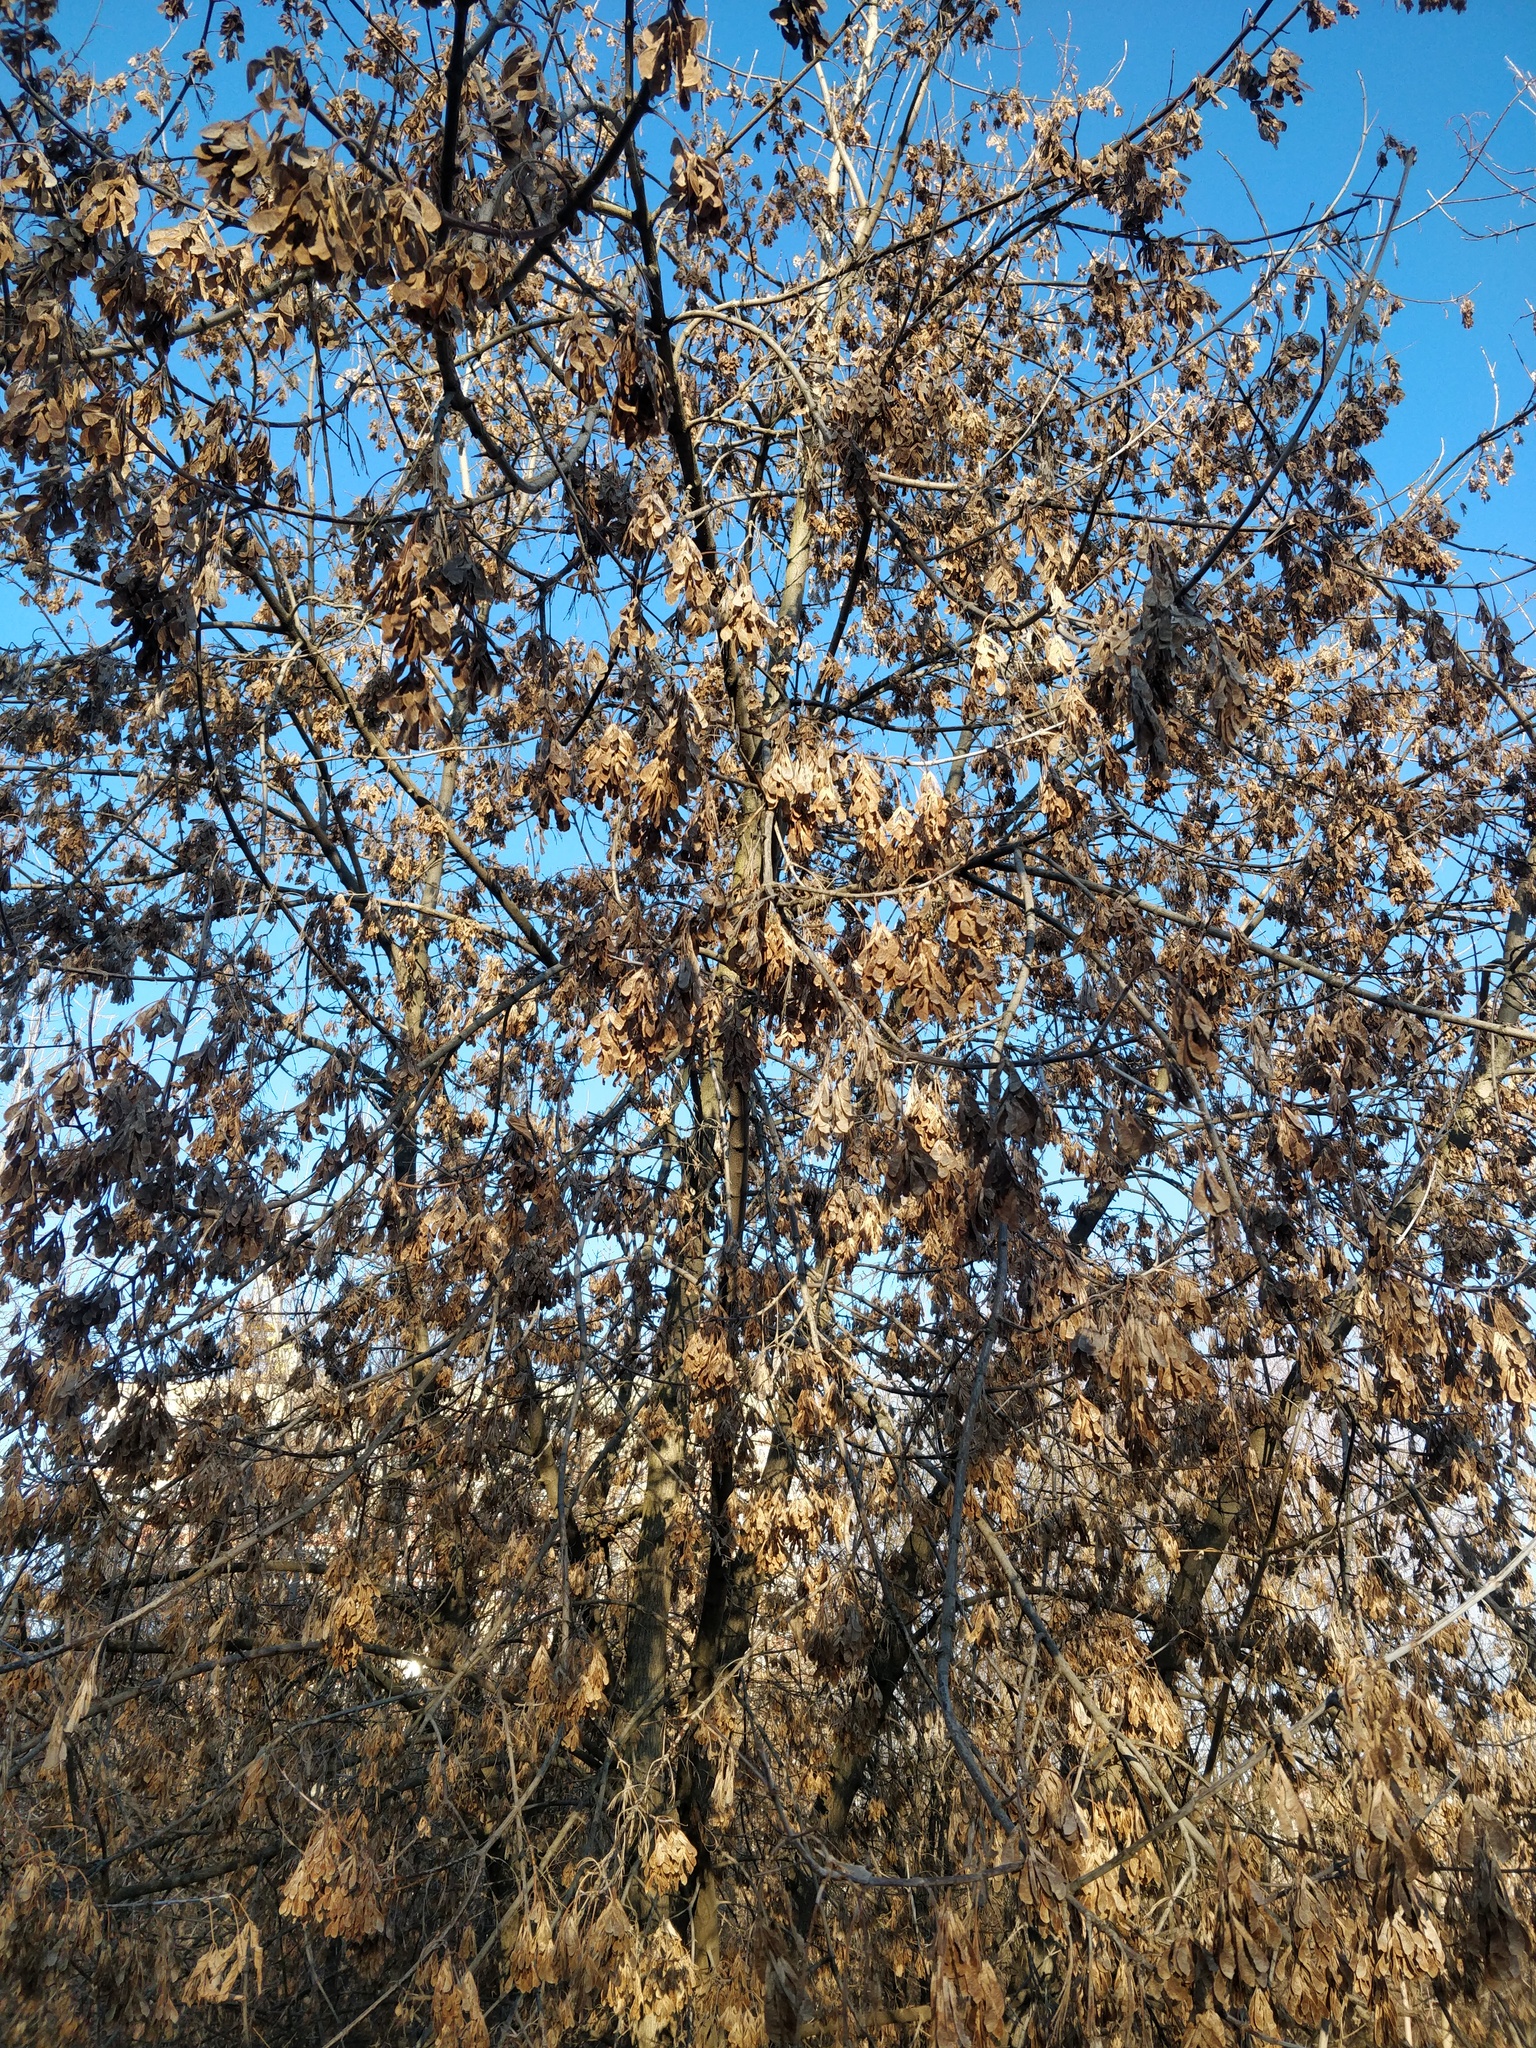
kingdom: Plantae
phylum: Tracheophyta
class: Magnoliopsida
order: Sapindales
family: Sapindaceae
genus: Acer
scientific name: Acer negundo
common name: Ashleaf maple
